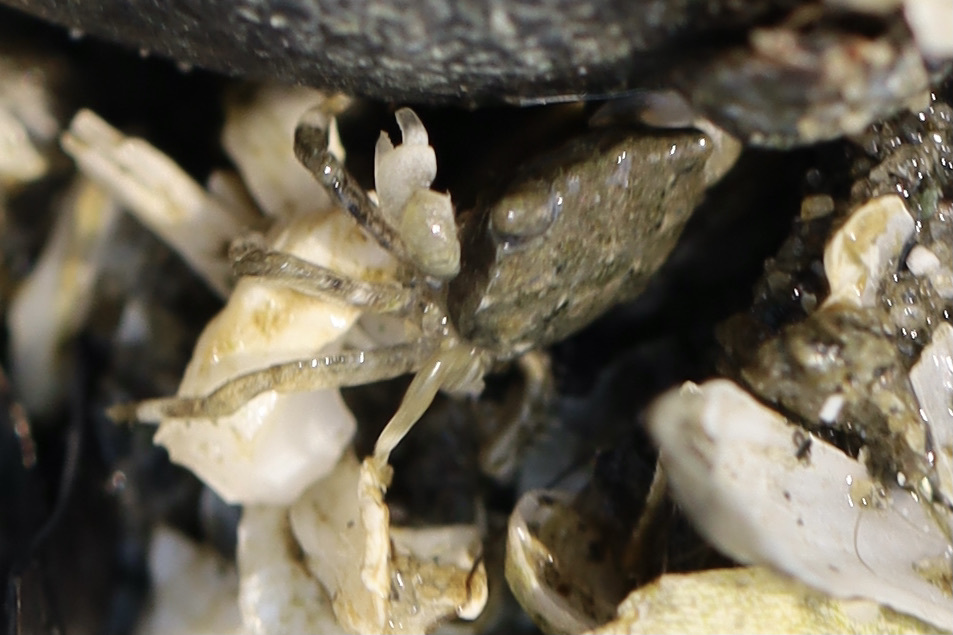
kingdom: Animalia
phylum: Arthropoda
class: Malacostraca
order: Decapoda
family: Varunidae
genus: Hemigrapsus
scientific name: Hemigrapsus oregonensis
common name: Yellow shore crab
